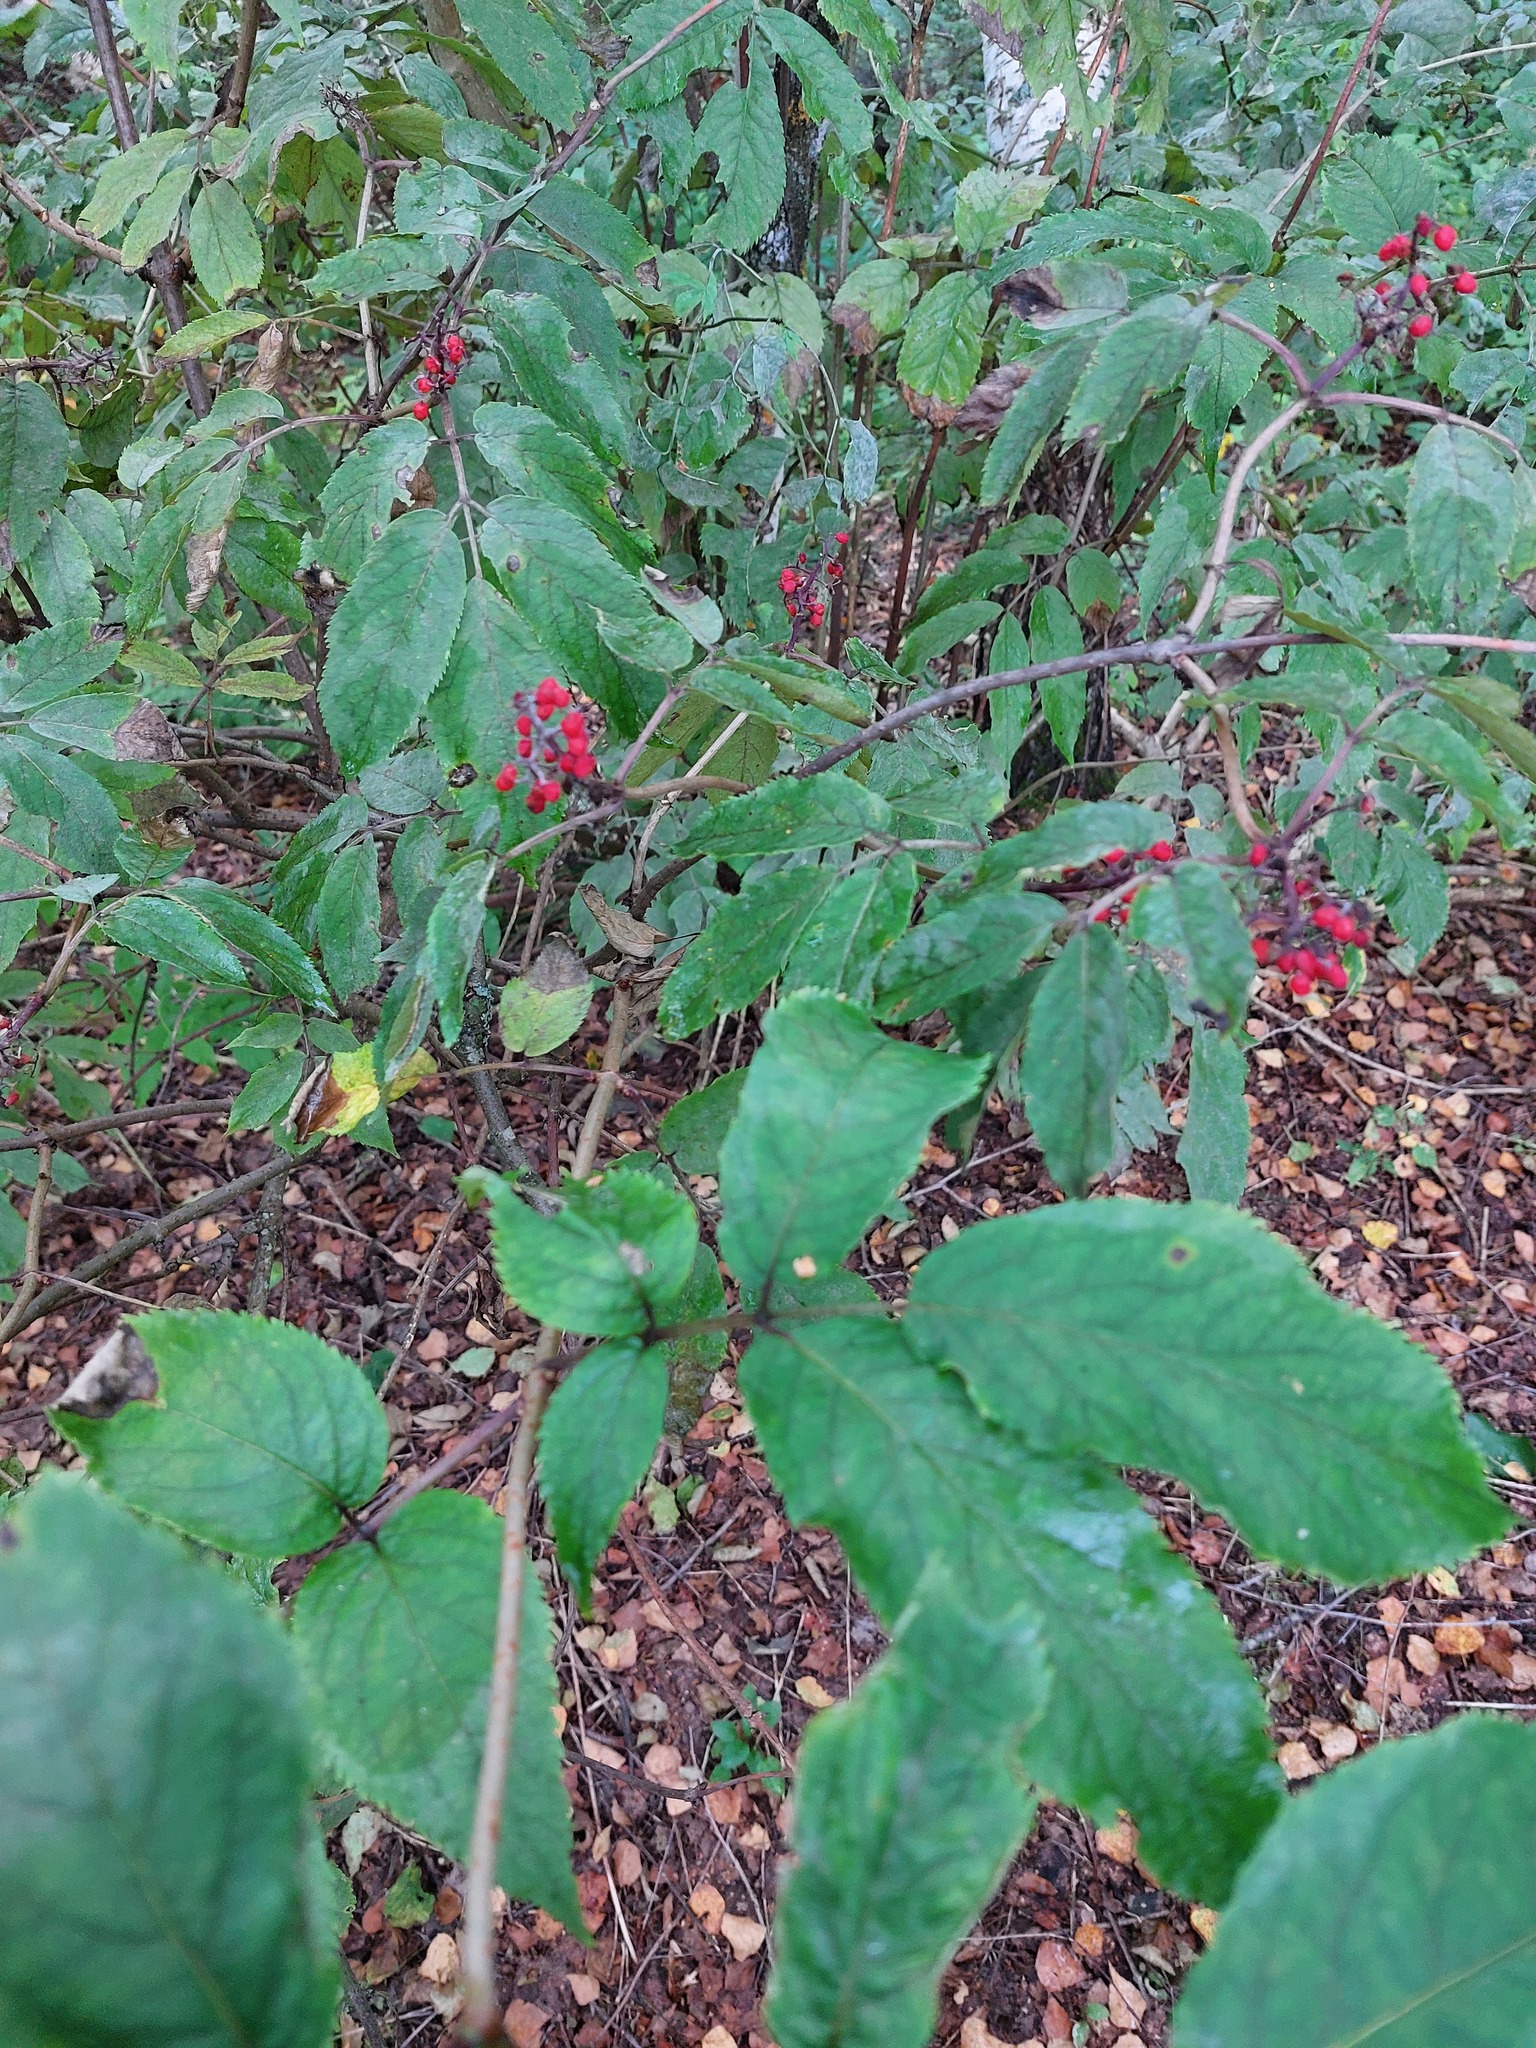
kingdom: Plantae
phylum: Tracheophyta
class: Magnoliopsida
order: Dipsacales
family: Viburnaceae
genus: Sambucus
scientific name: Sambucus racemosa
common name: Red-berried elder
